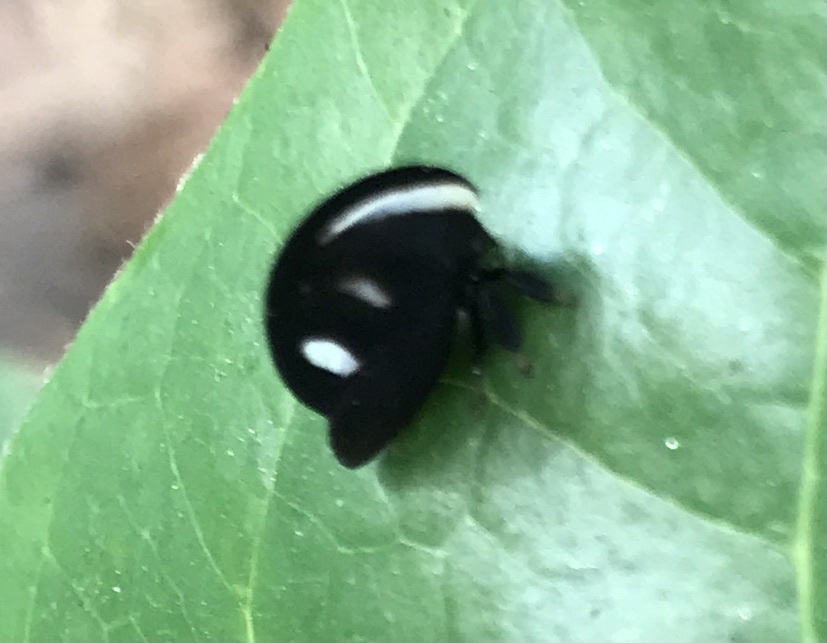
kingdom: Animalia
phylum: Arthropoda
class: Insecta
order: Hemiptera
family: Membracidae
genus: Membracis
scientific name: Membracis
